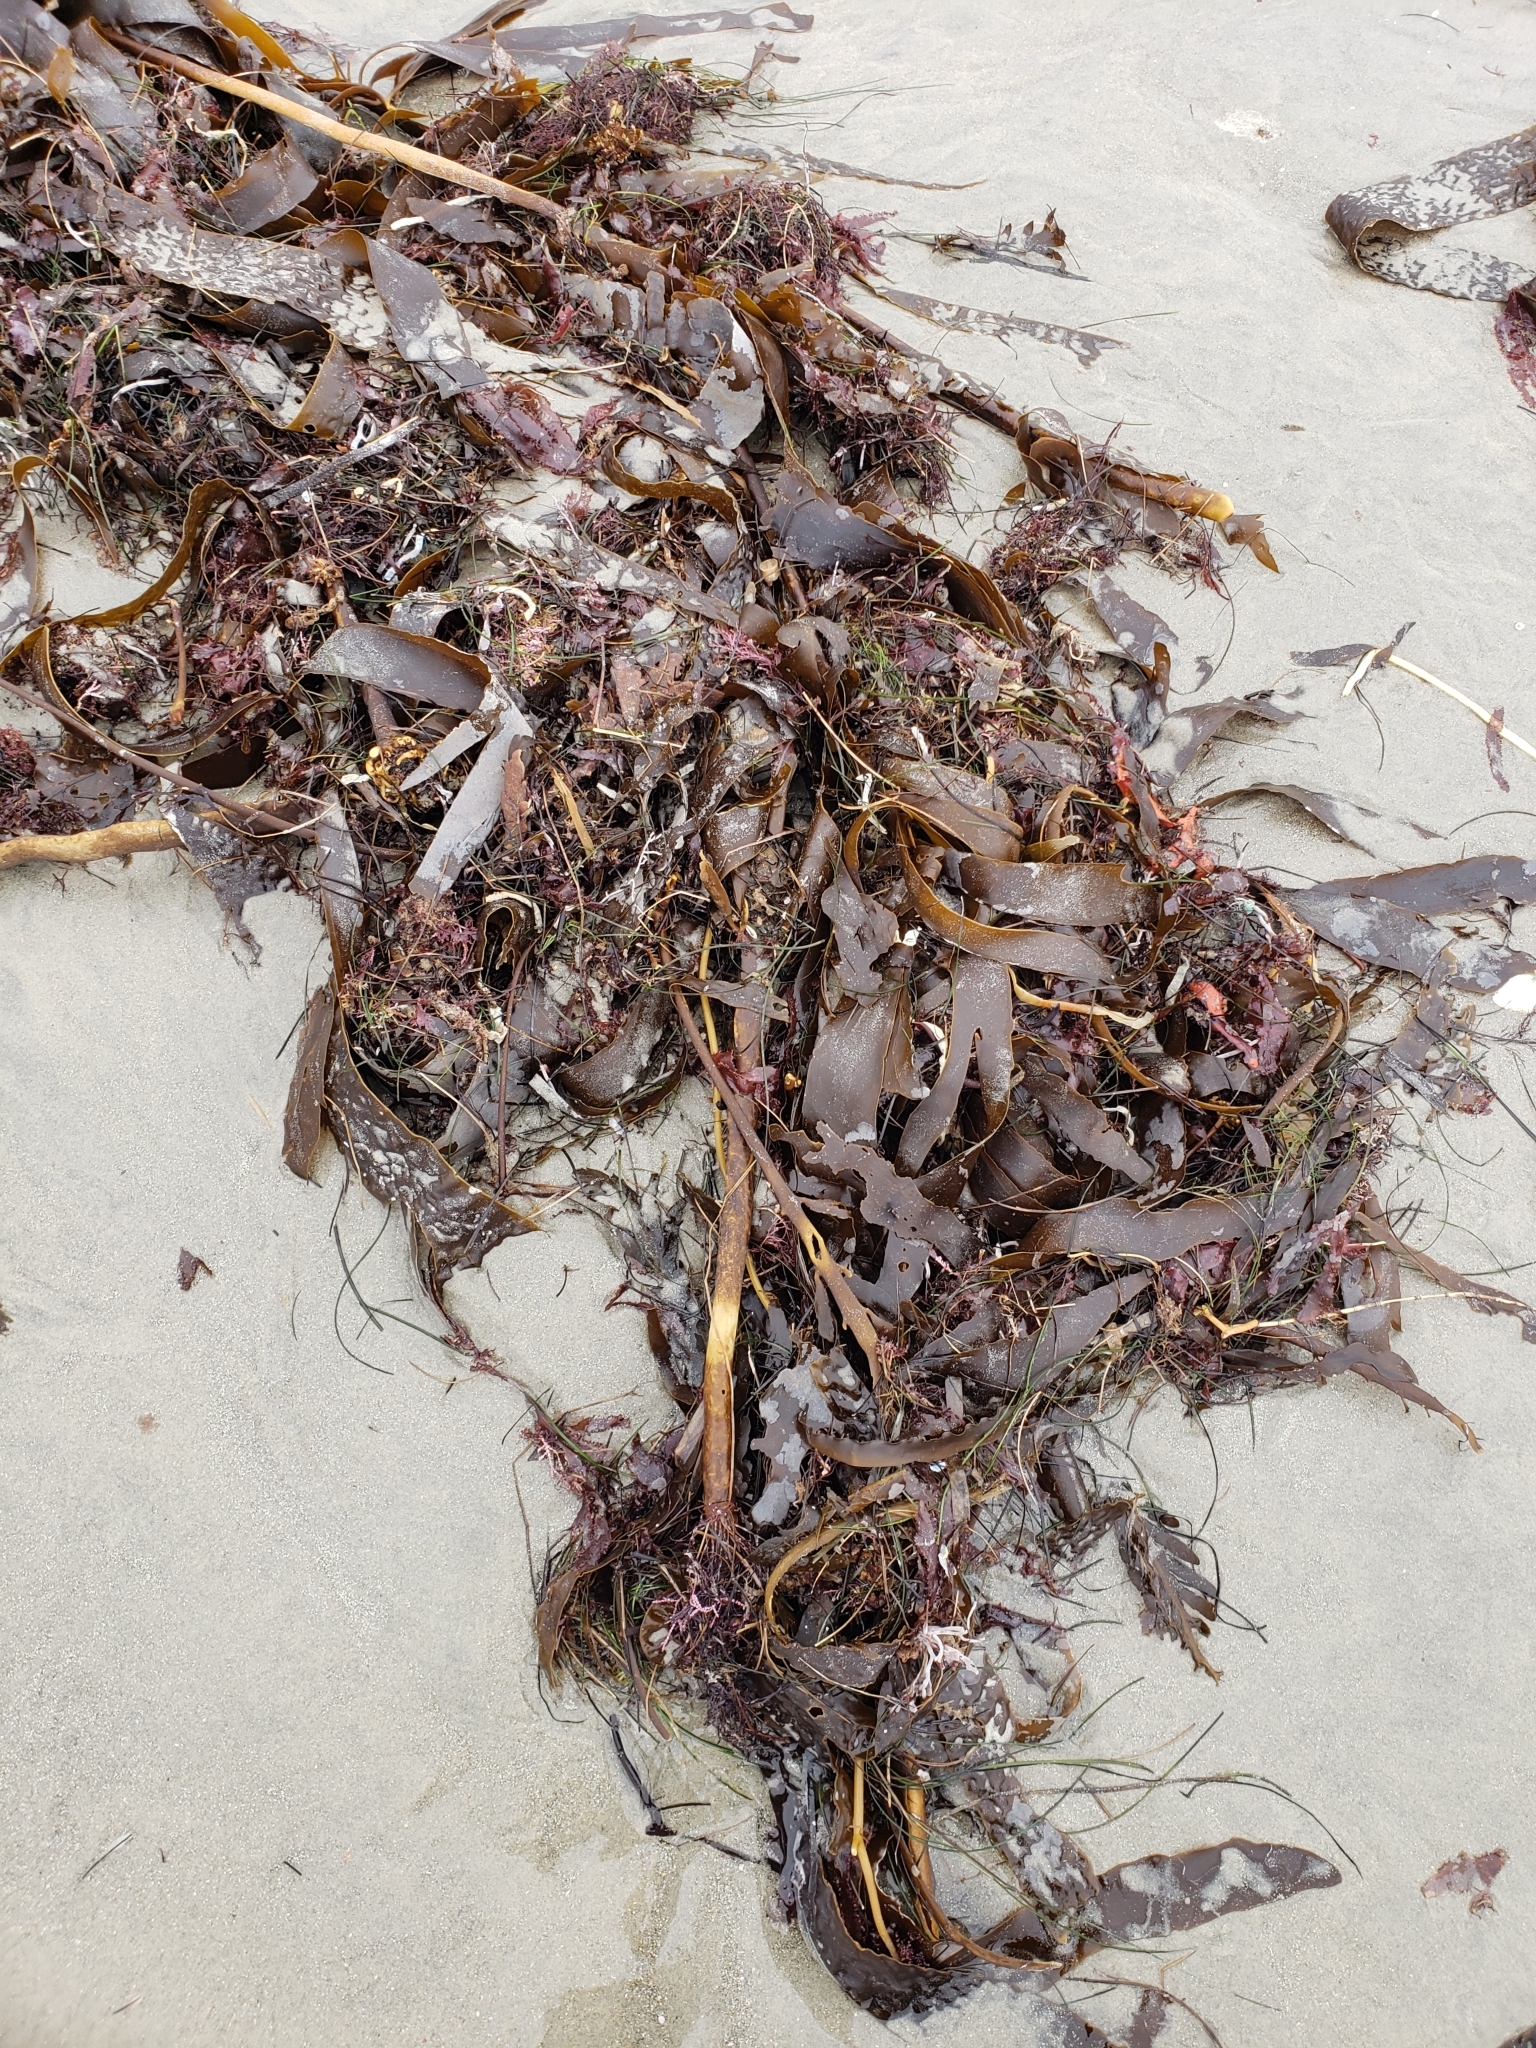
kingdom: Chromista
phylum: Ochrophyta
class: Phaeophyceae
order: Laminariales
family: Alariaceae
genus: Pterygophora
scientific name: Pterygophora californica
